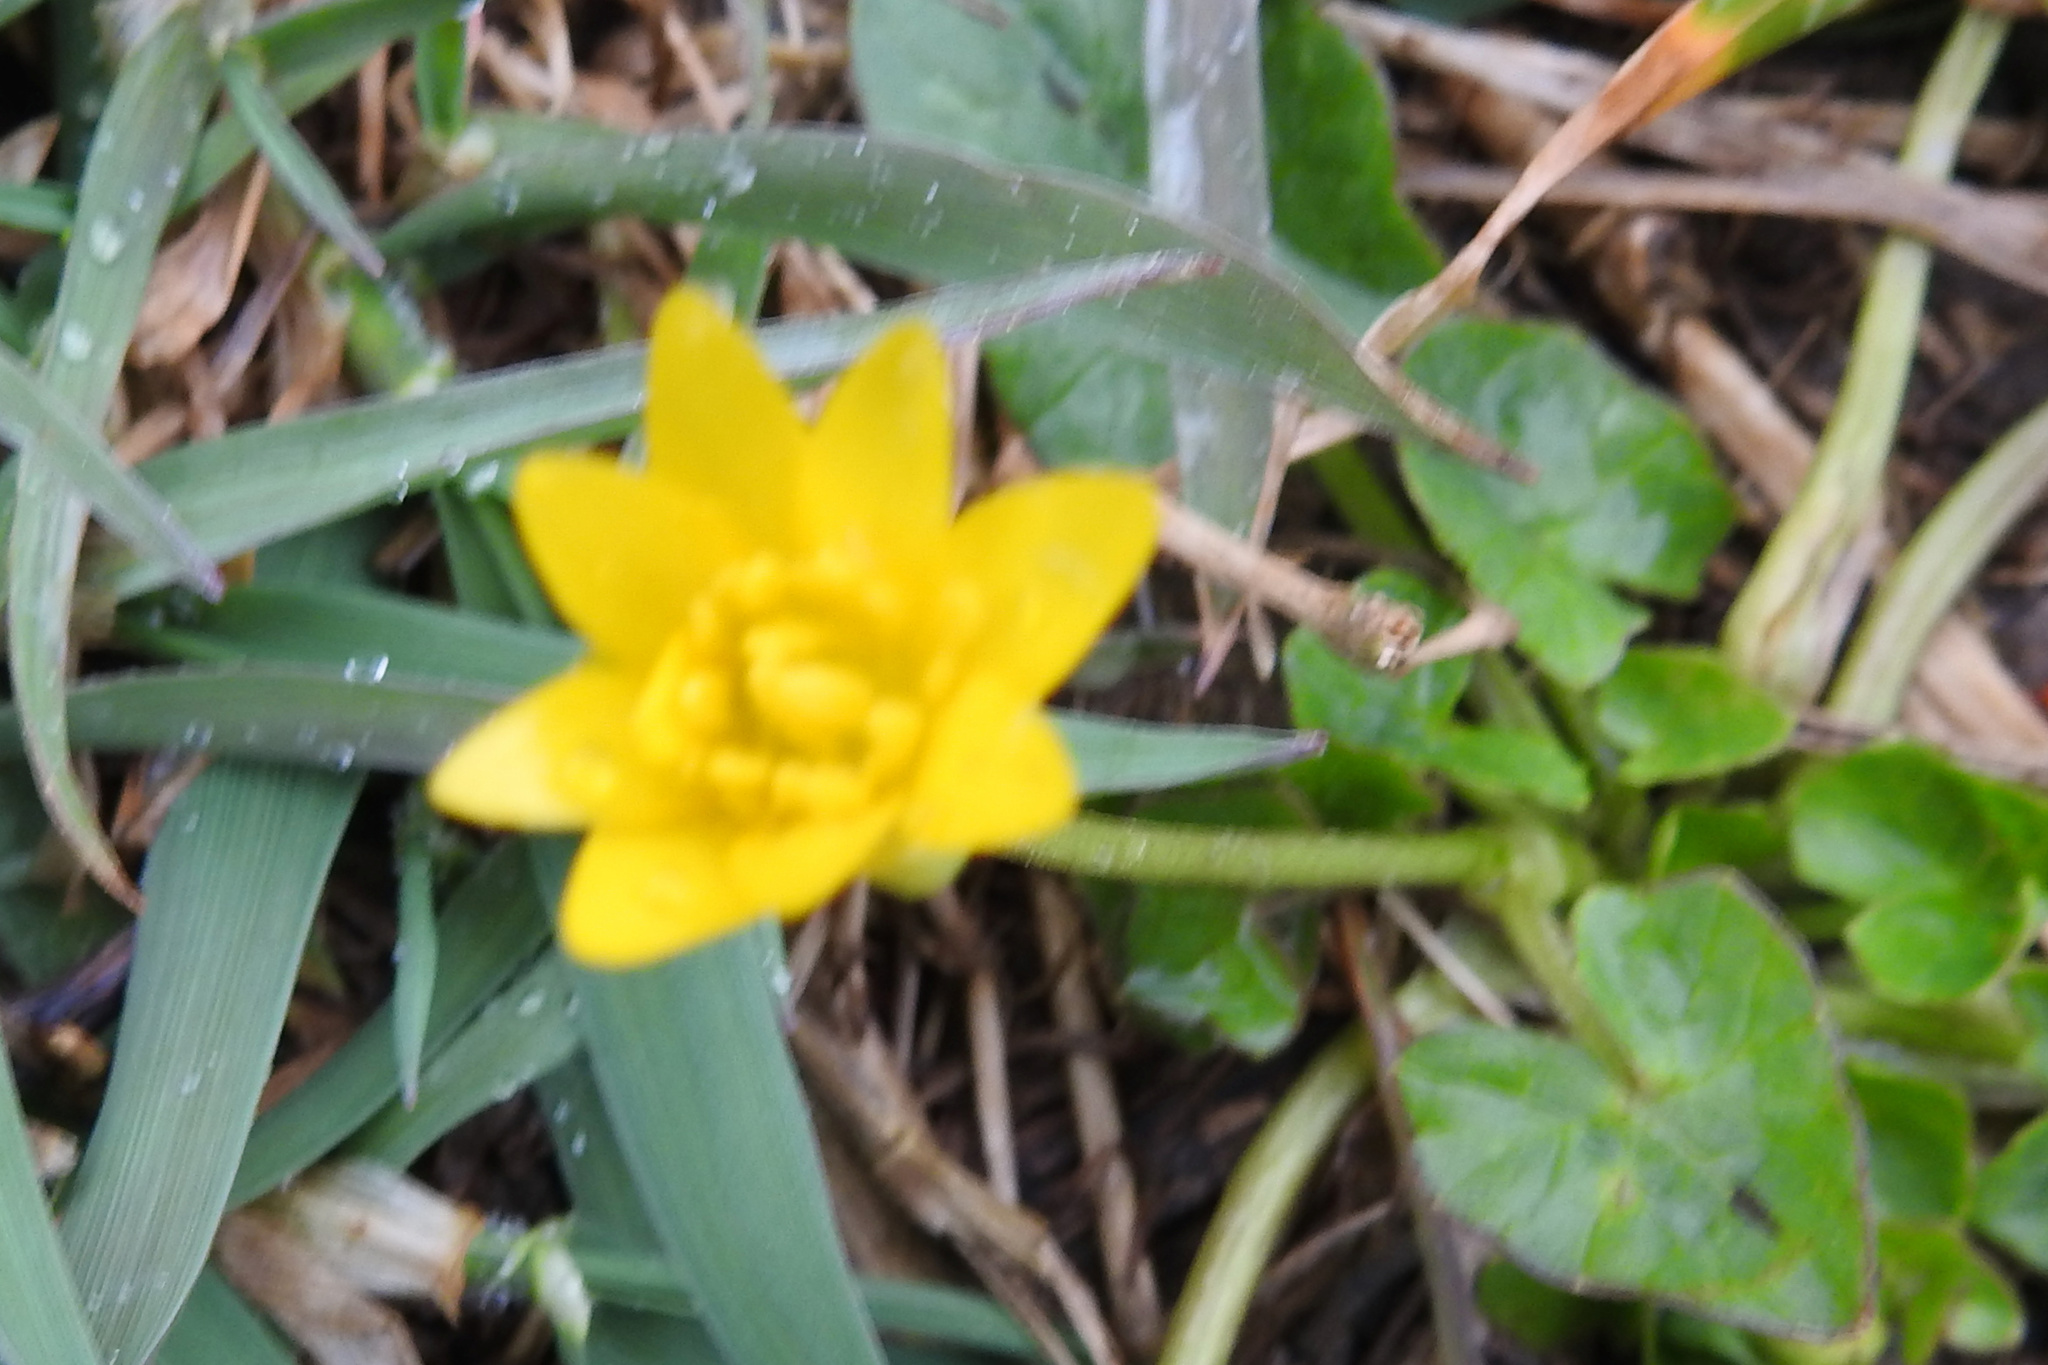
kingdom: Plantae
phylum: Tracheophyta
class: Magnoliopsida
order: Ranunculales
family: Ranunculaceae
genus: Ficaria
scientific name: Ficaria verna
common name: Lesser celandine
